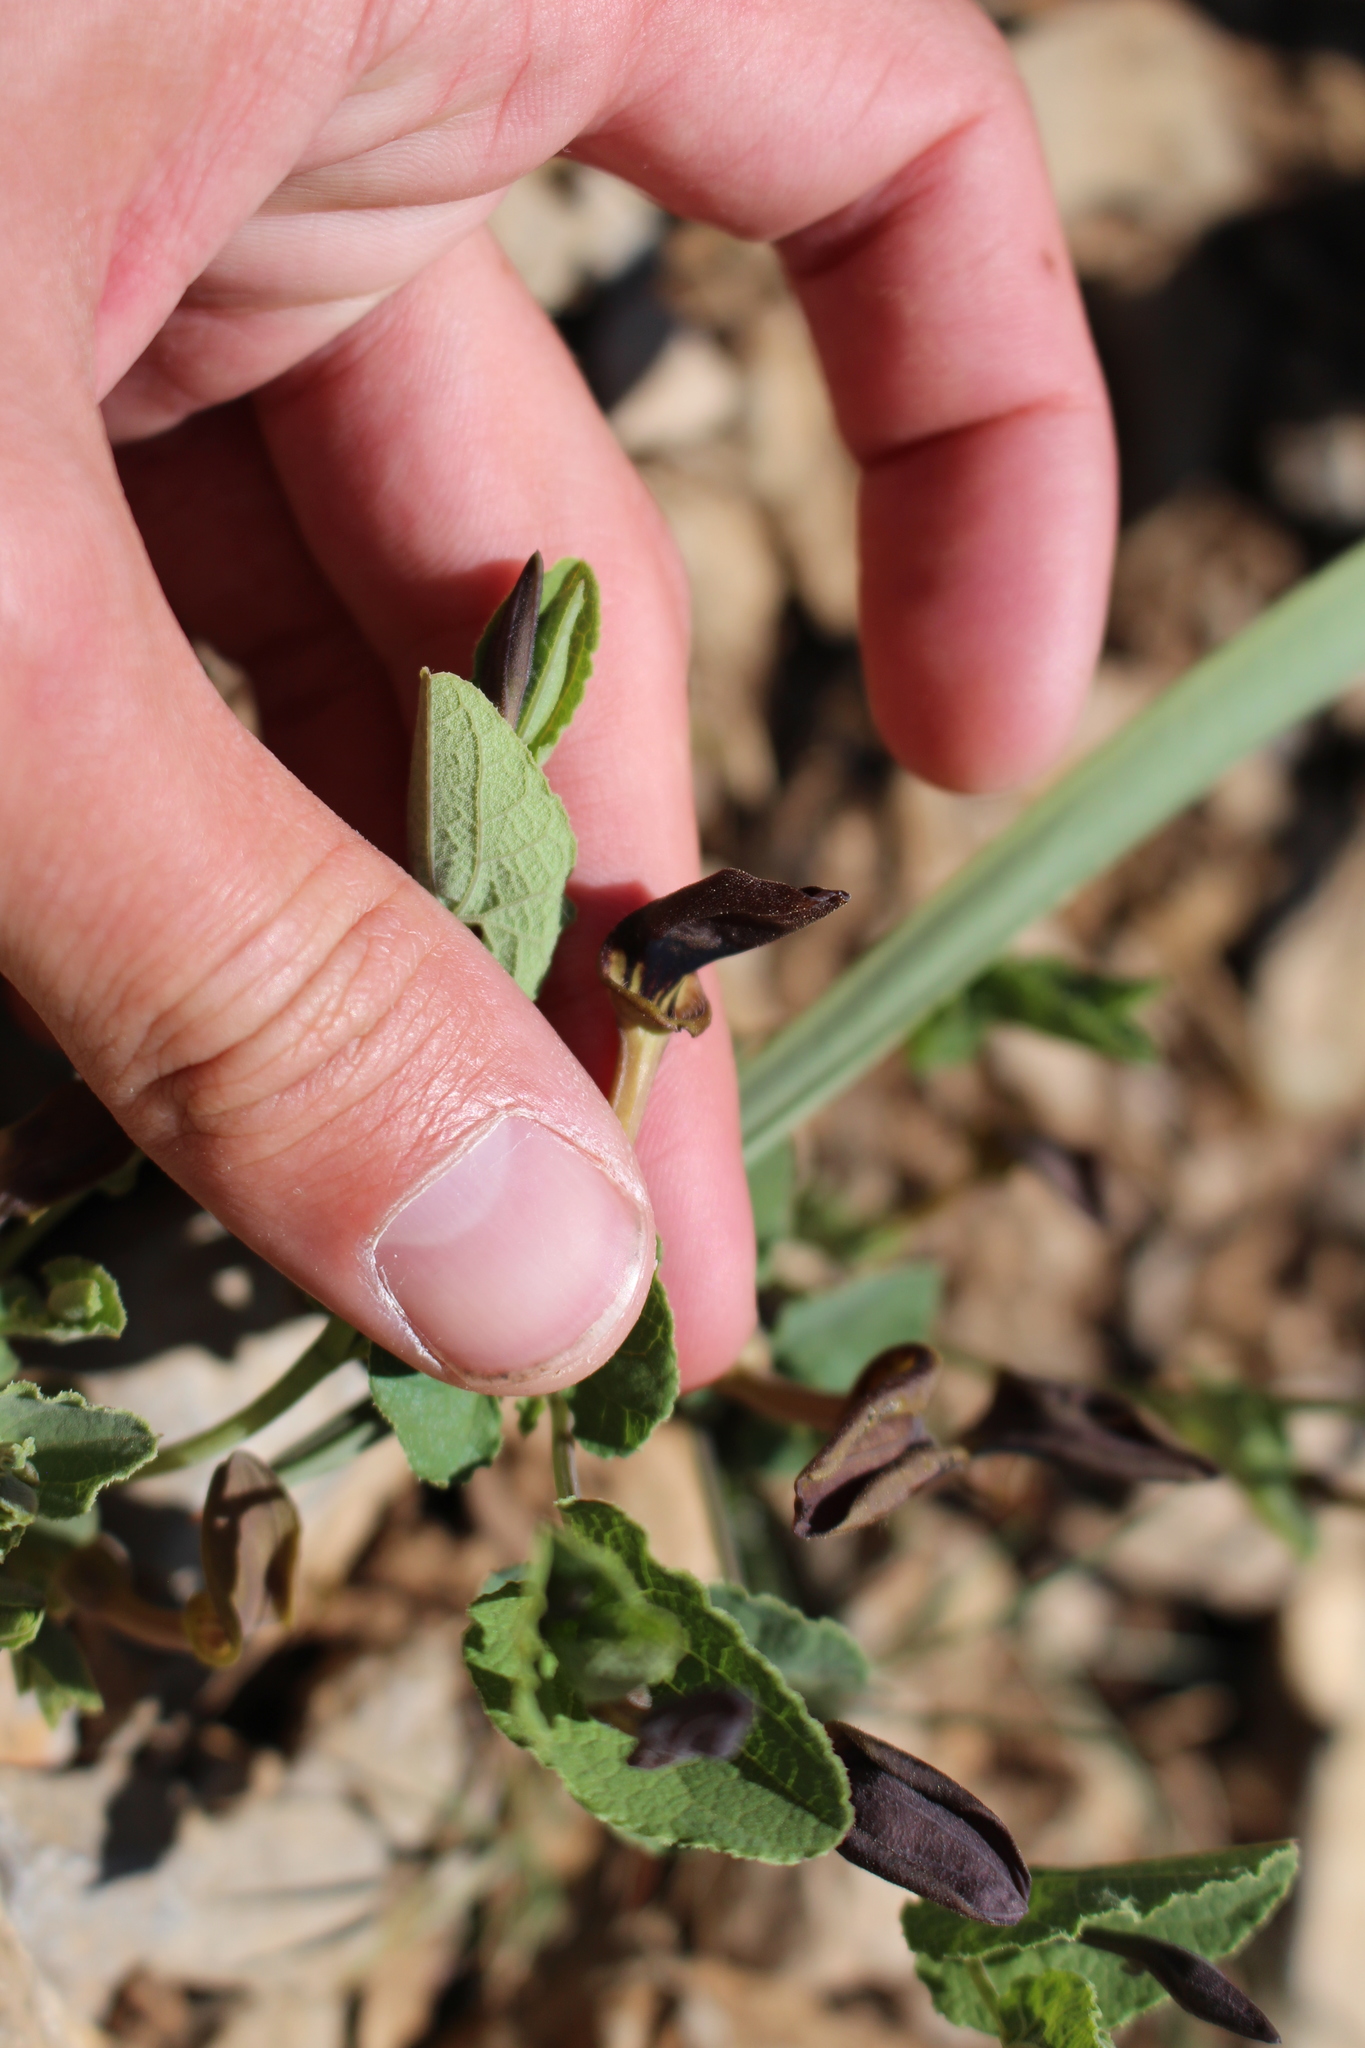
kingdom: Plantae
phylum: Tracheophyta
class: Magnoliopsida
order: Piperales
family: Aristolochiaceae
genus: Aristolochia
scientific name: Aristolochia pistolochia
